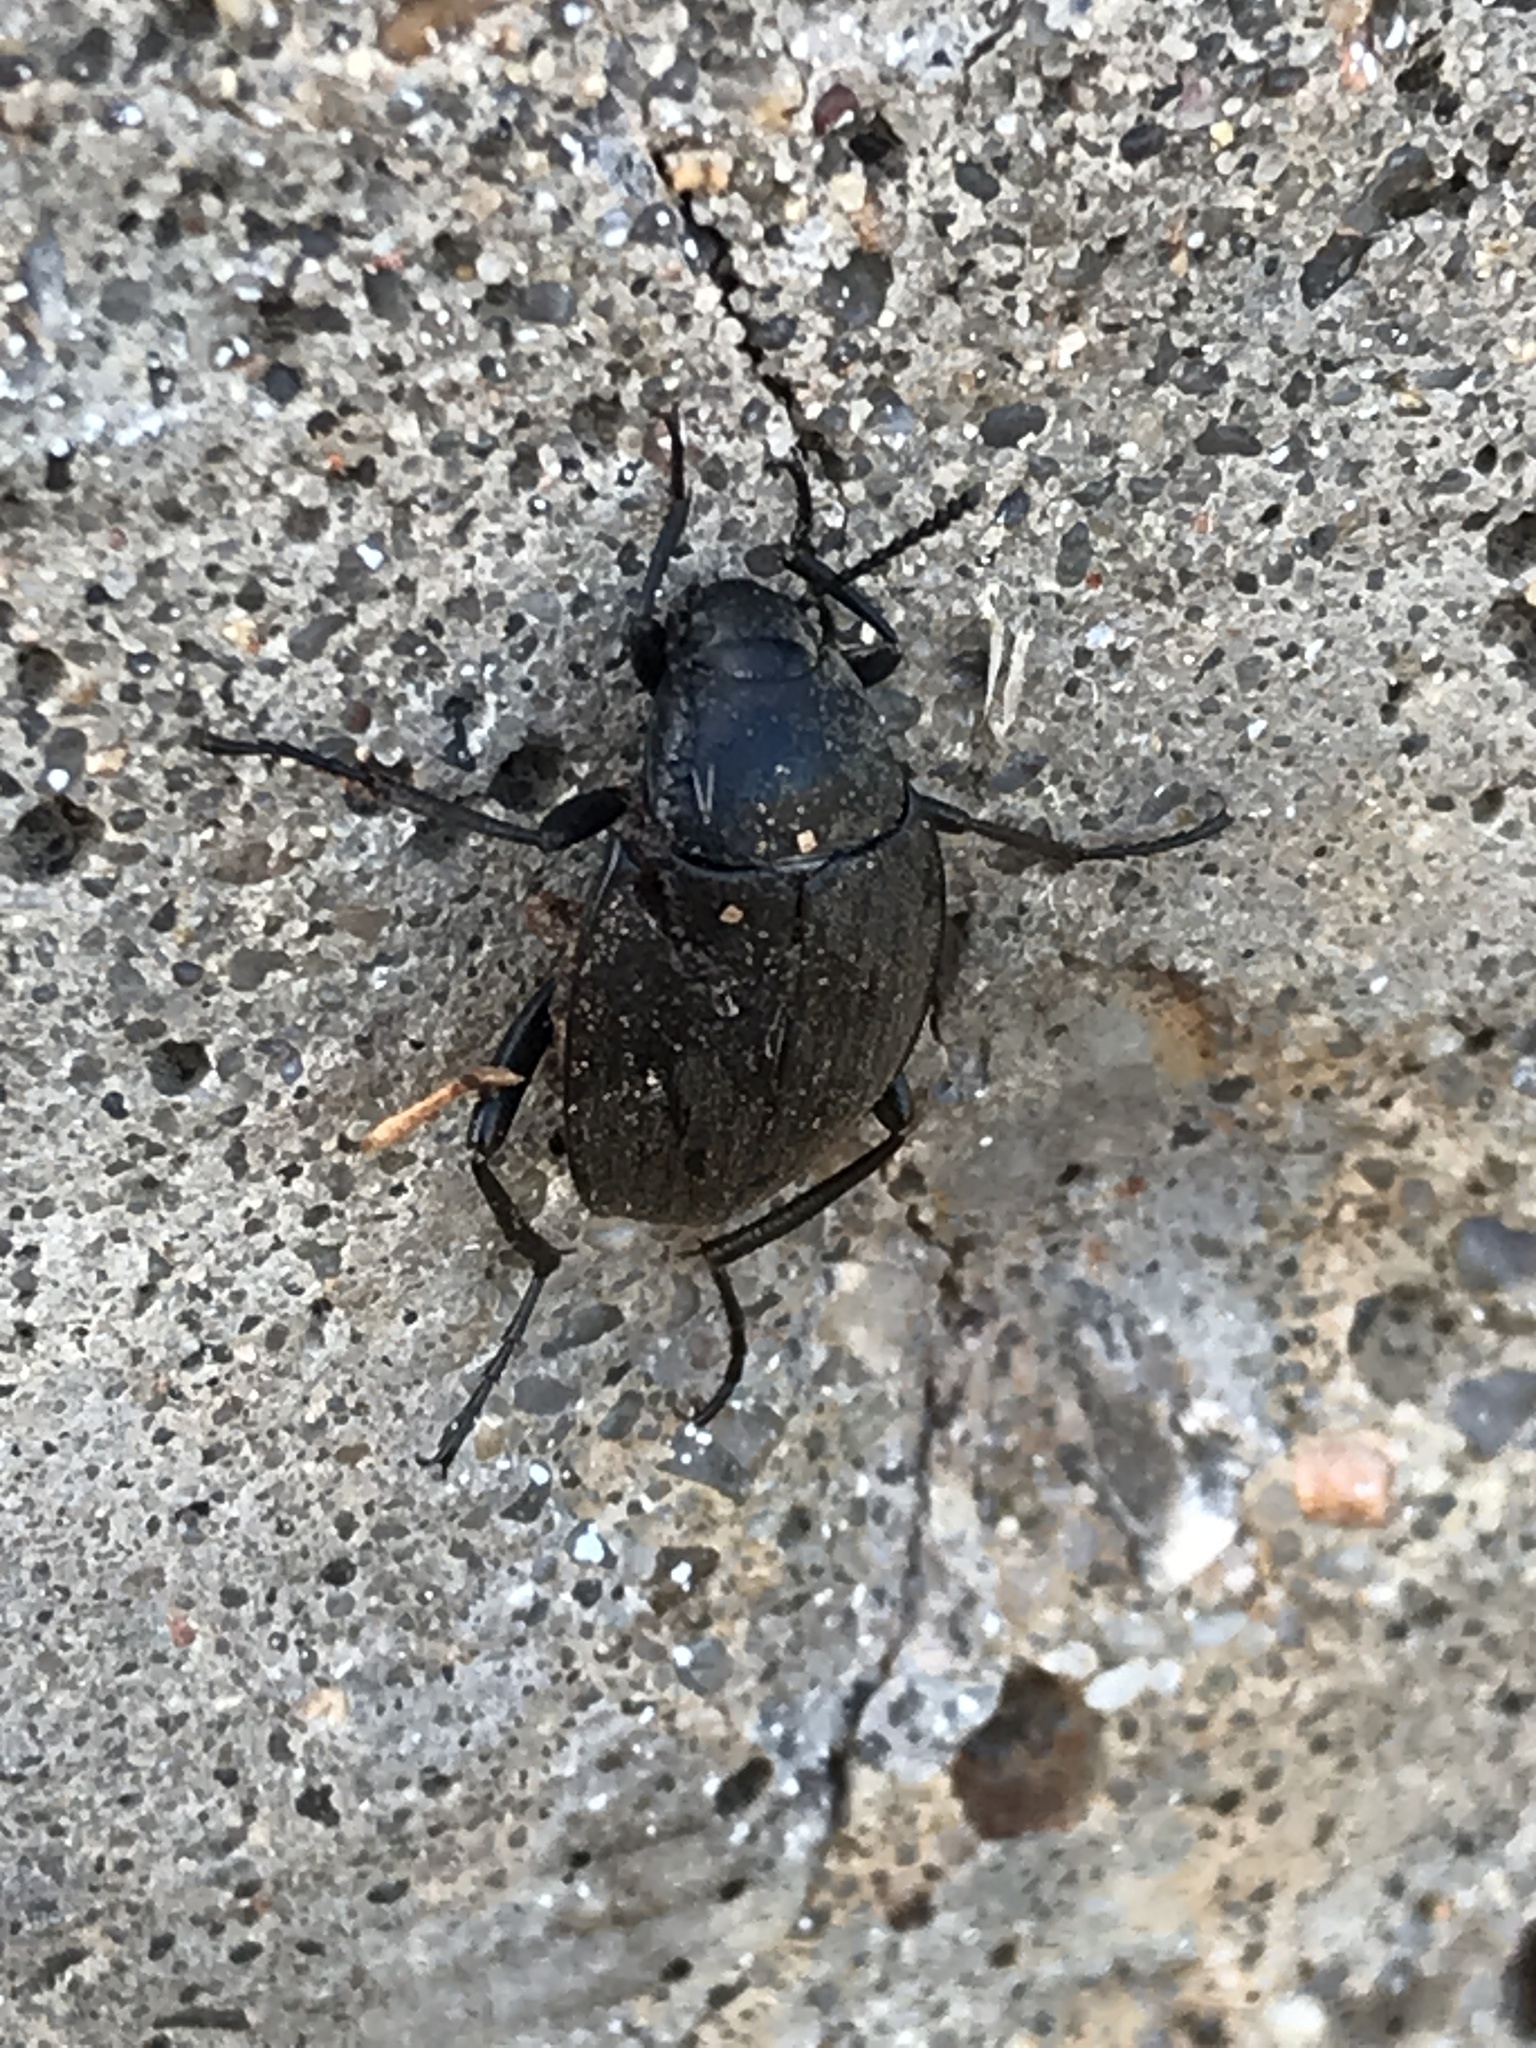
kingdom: Animalia
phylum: Arthropoda
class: Insecta
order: Coleoptera
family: Tenebrionidae
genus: Eleodes
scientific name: Eleodes opaca
